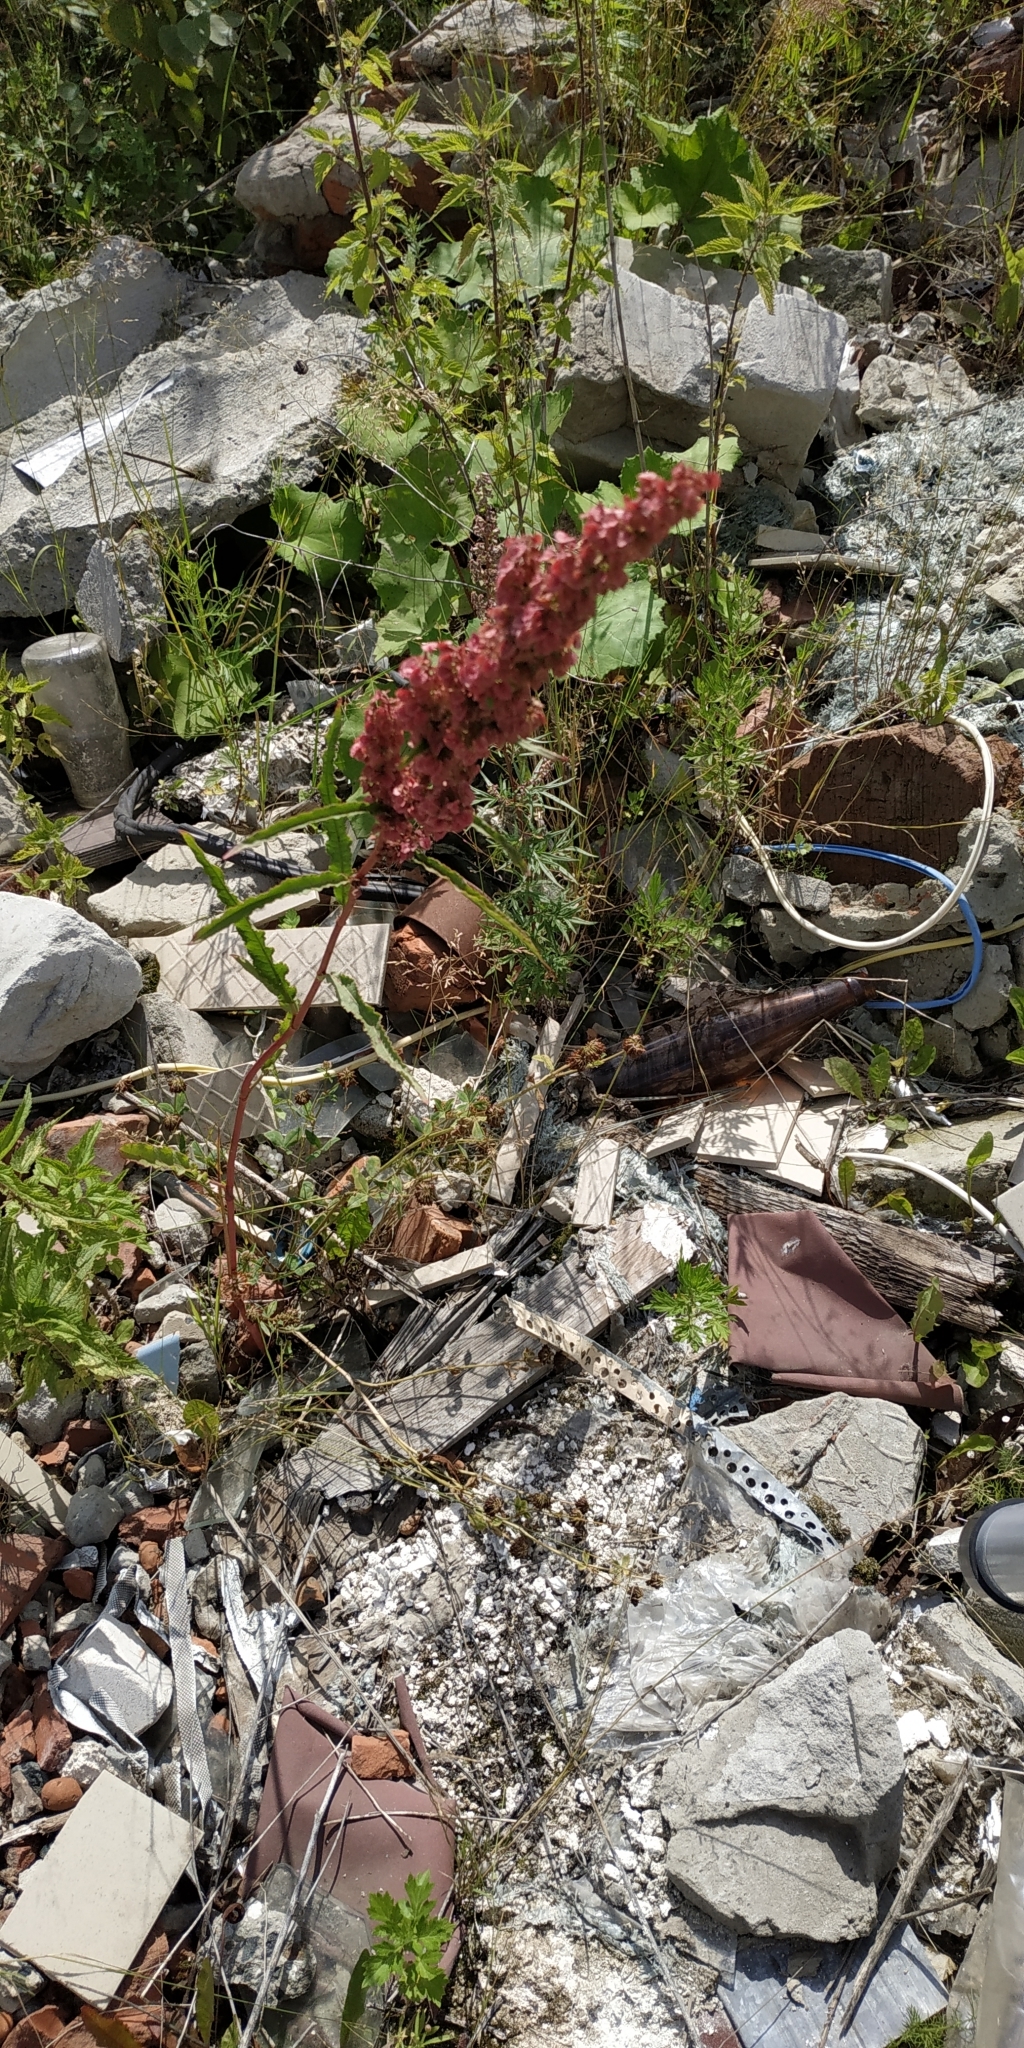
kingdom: Plantae
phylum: Tracheophyta
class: Magnoliopsida
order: Caryophyllales
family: Polygonaceae
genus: Rumex
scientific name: Rumex pseudonatronatus
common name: Field dock
